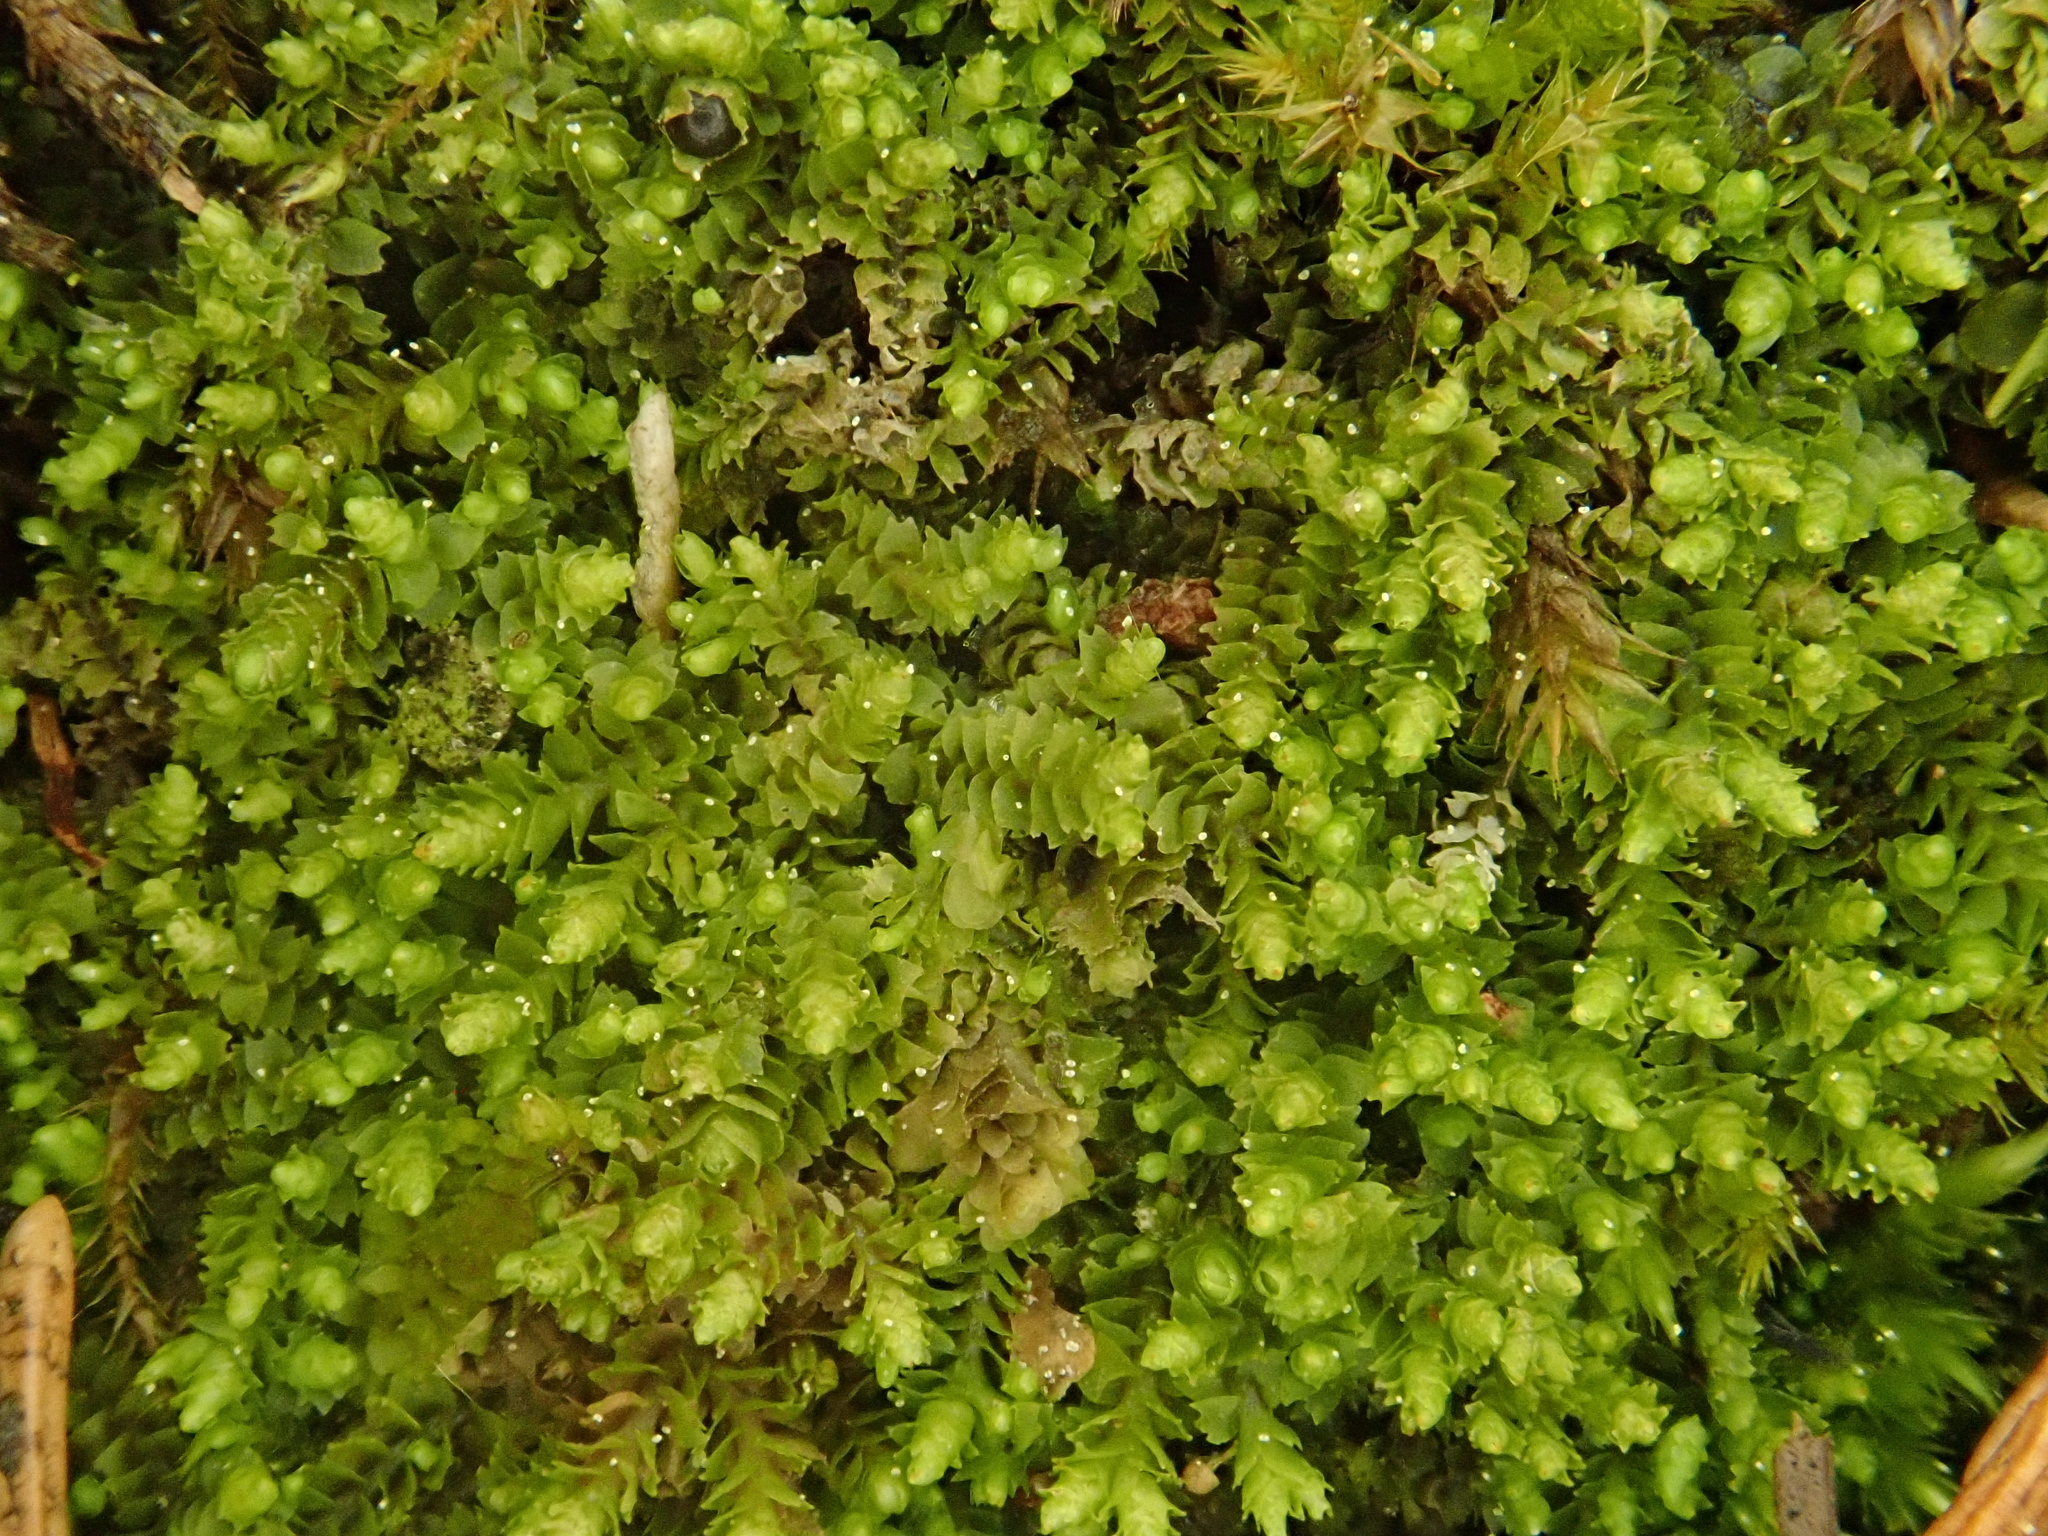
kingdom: Plantae
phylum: Marchantiophyta
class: Jungermanniopsida
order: Jungermanniales
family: Anastrophyllaceae
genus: Barbilophozia
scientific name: Barbilophozia sudetica
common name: Hill notchwort
